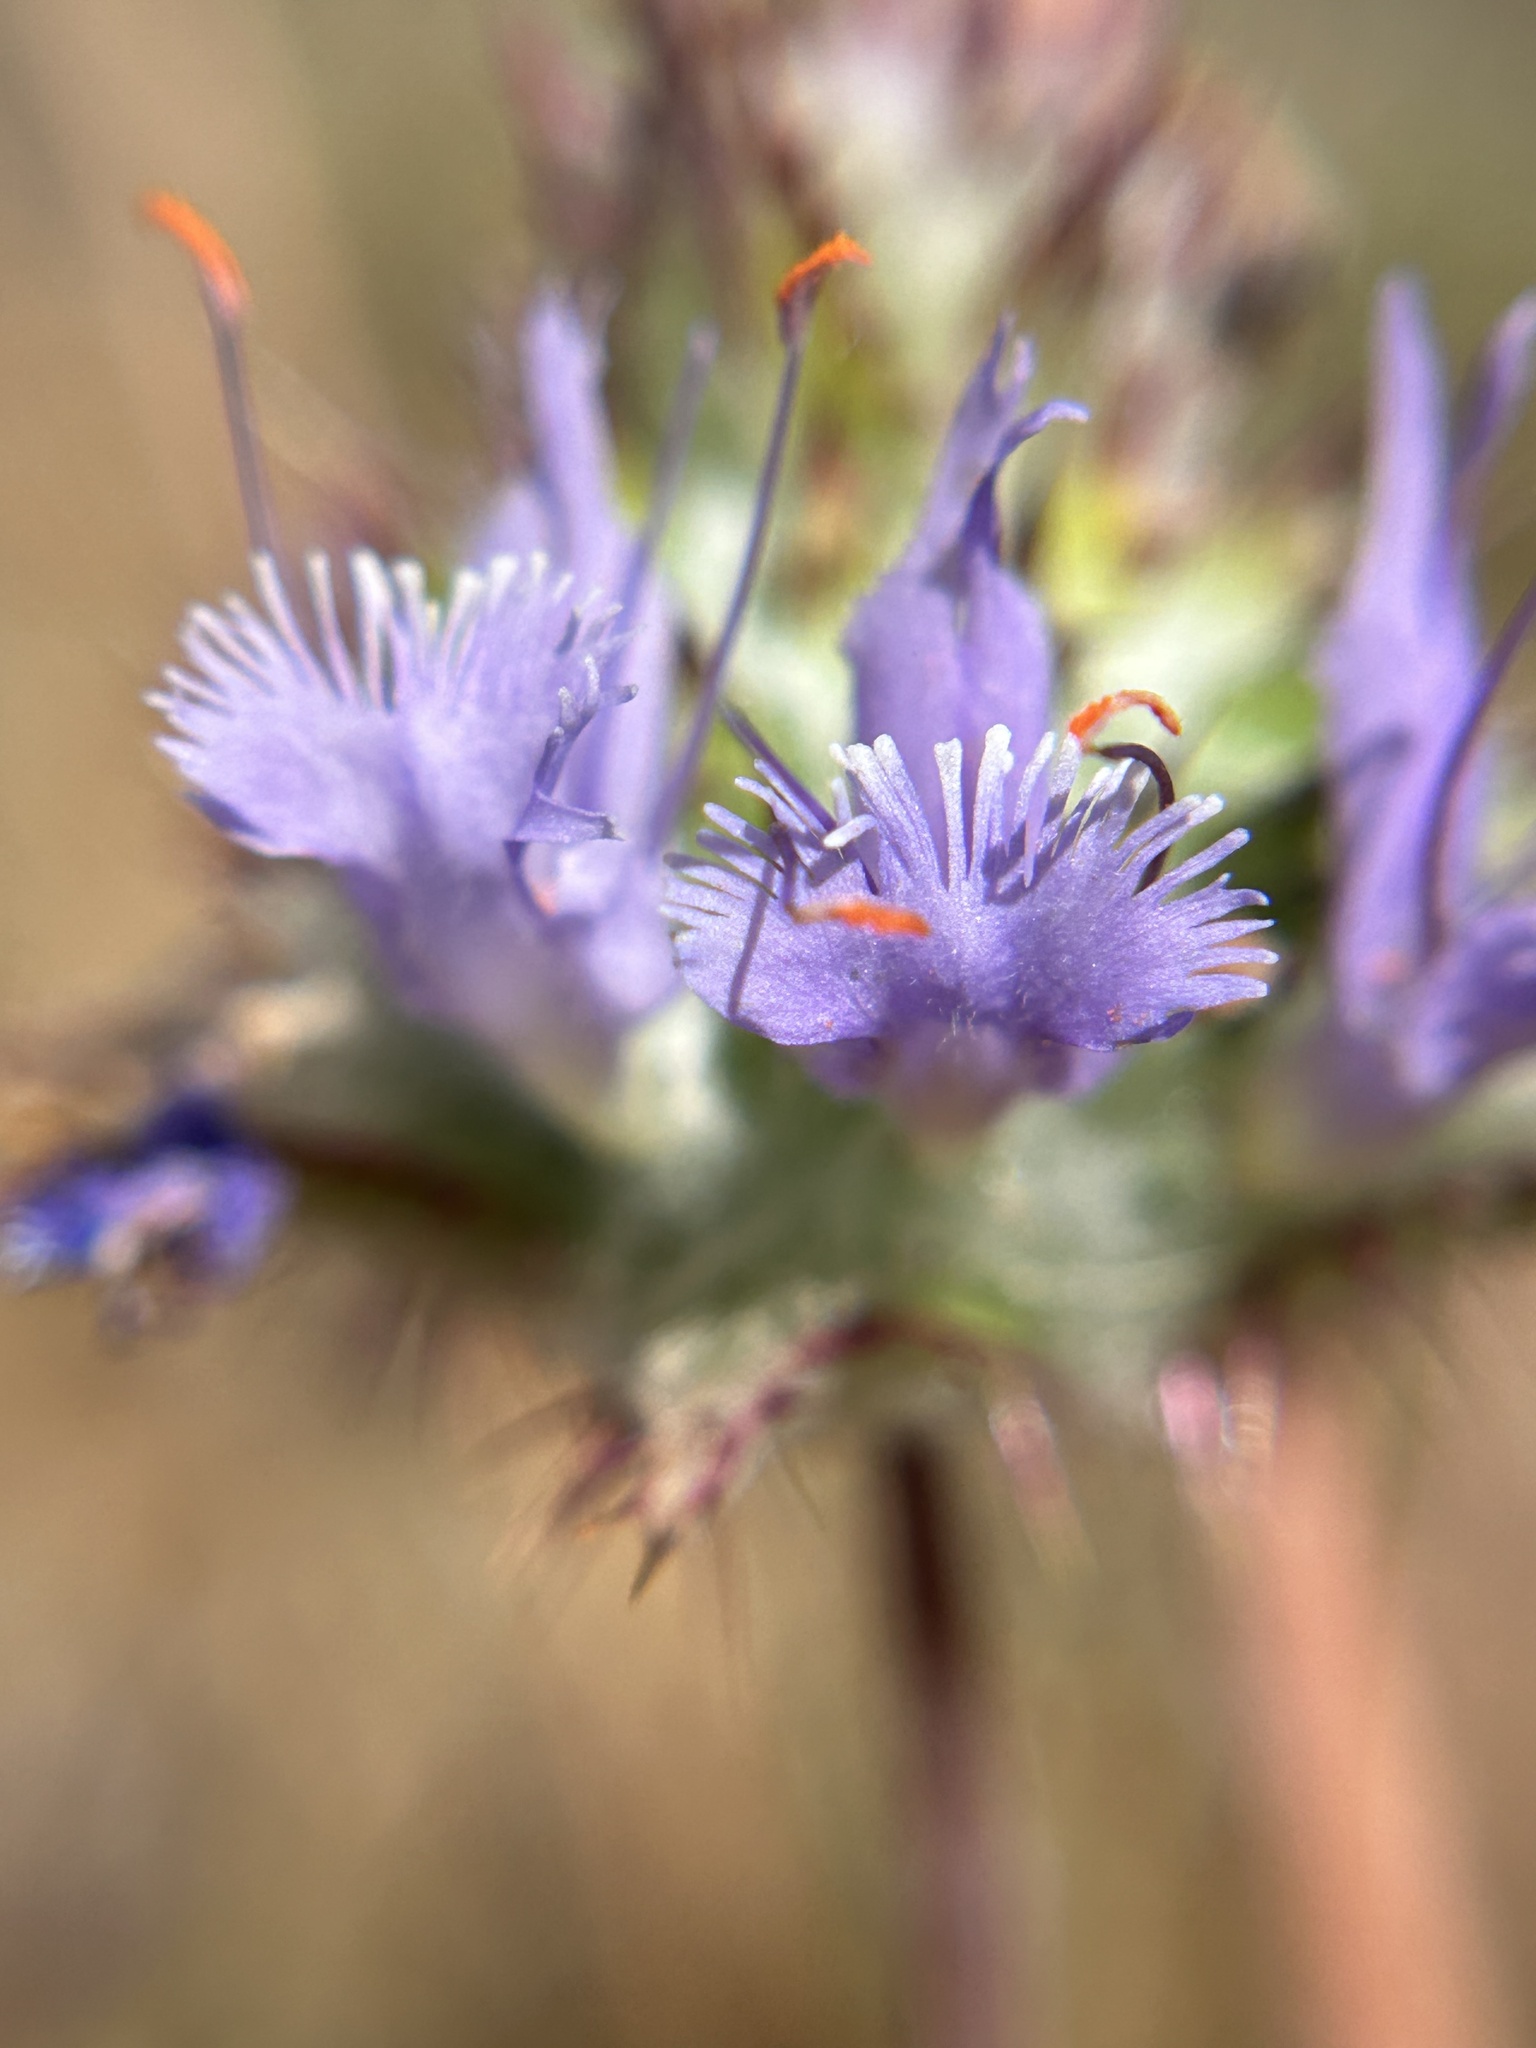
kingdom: Plantae
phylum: Tracheophyta
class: Magnoliopsida
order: Lamiales
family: Lamiaceae
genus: Salvia
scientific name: Salvia carduacea
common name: Thistle sage
